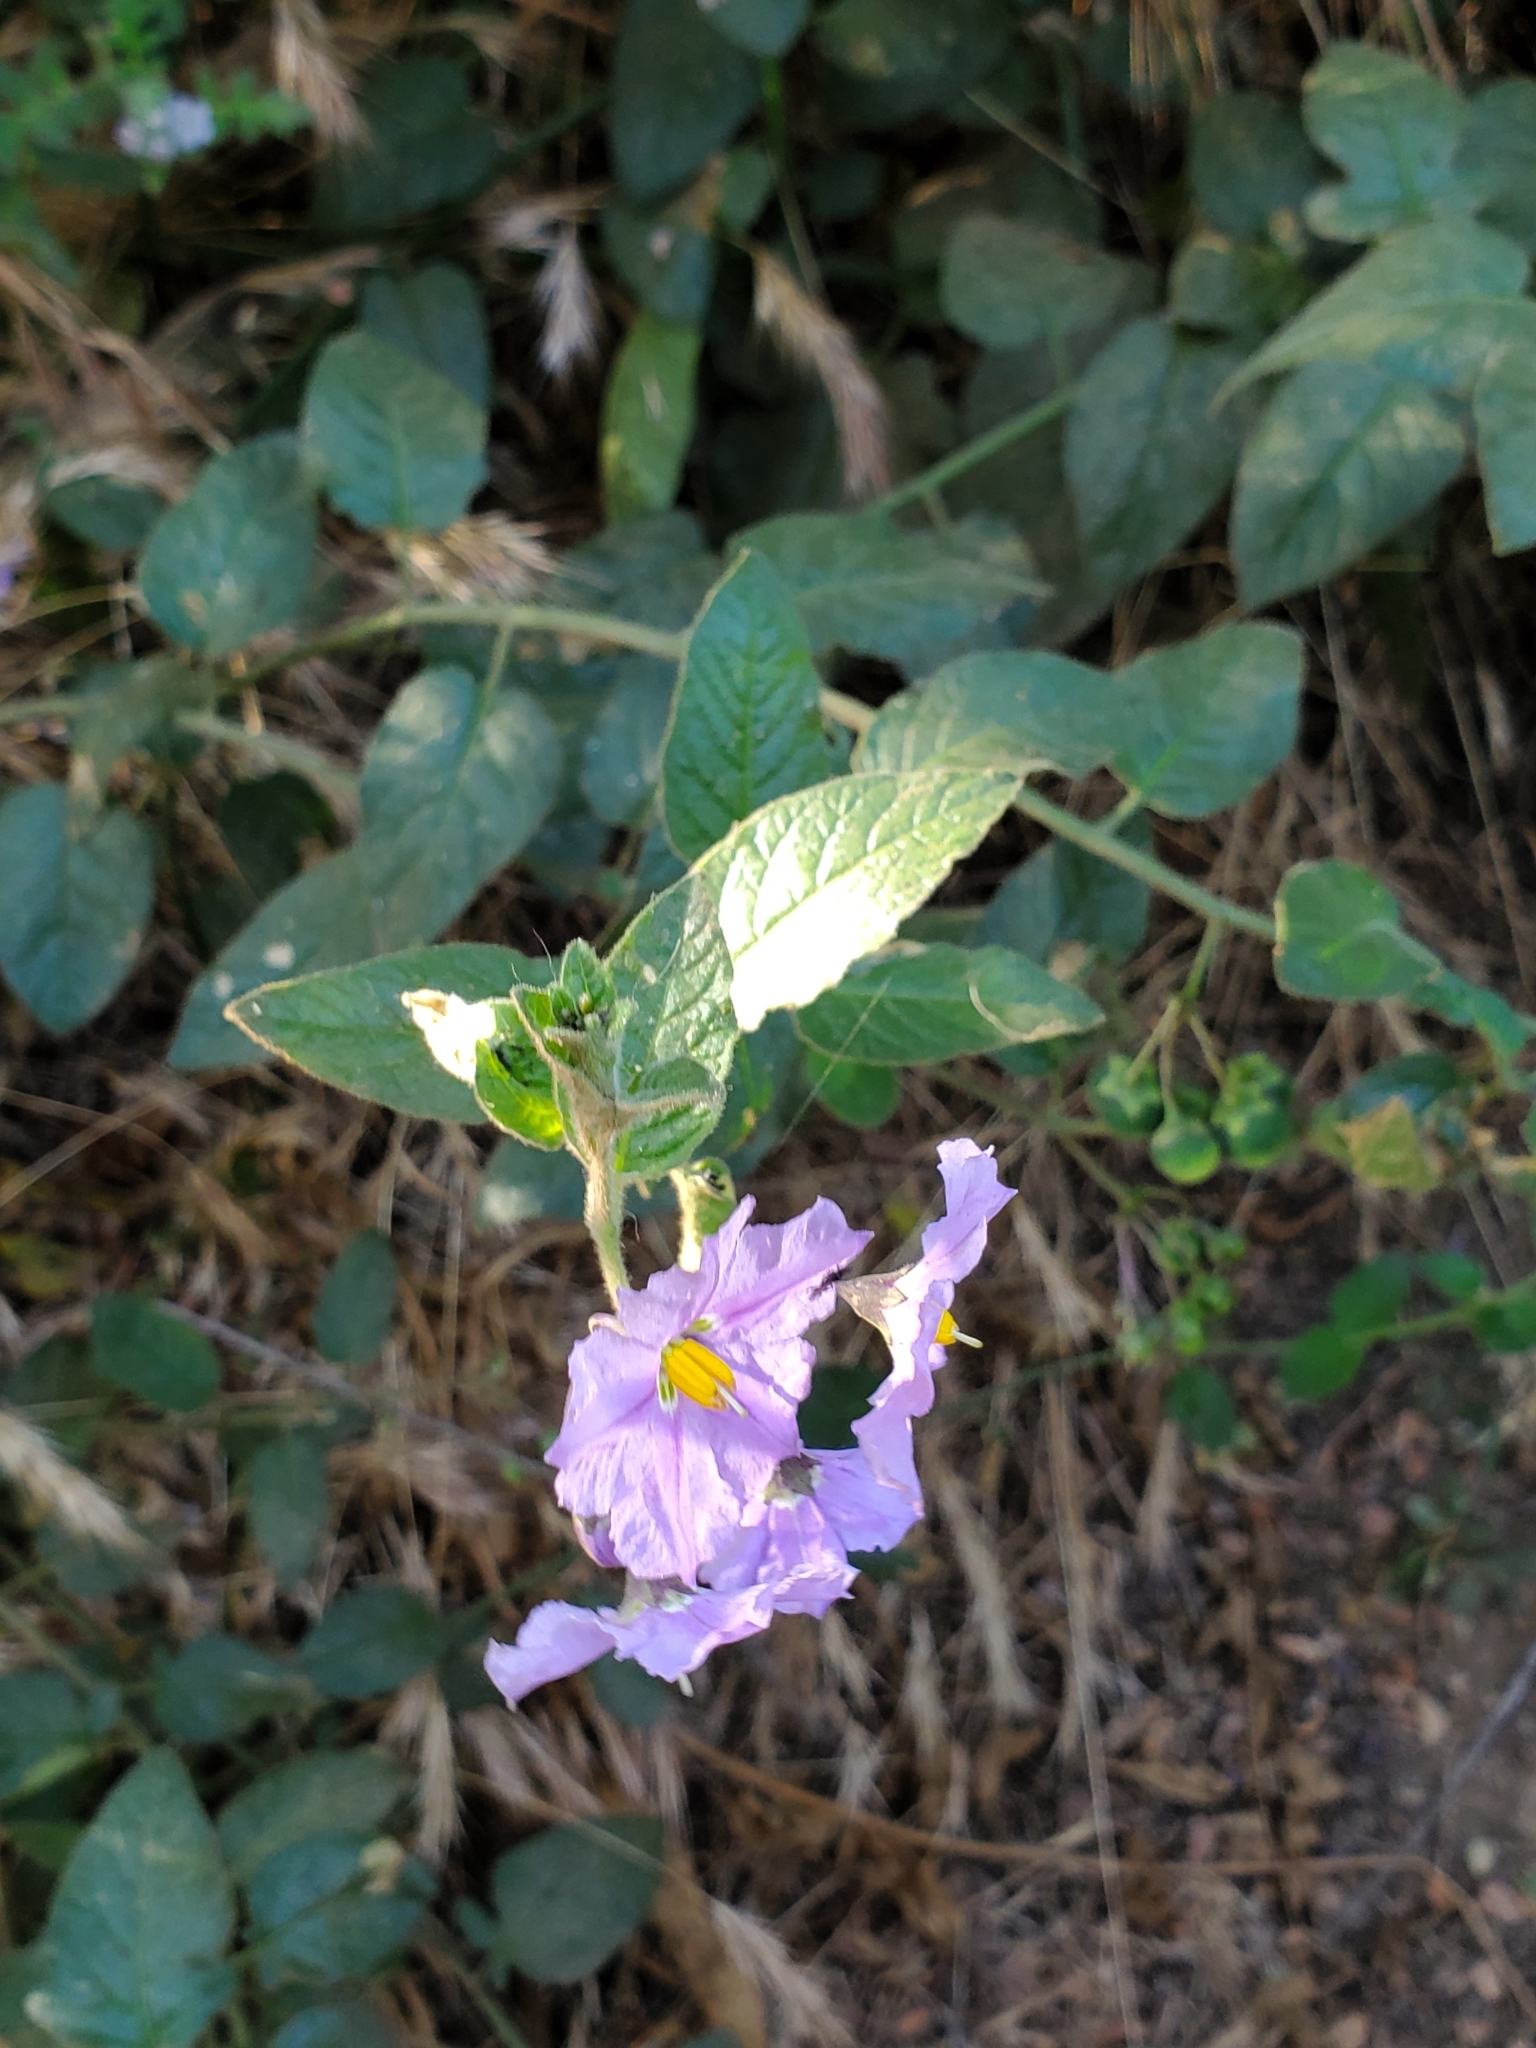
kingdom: Plantae
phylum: Tracheophyta
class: Magnoliopsida
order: Solanales
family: Solanaceae
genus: Solanum
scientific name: Solanum umbelliferum
